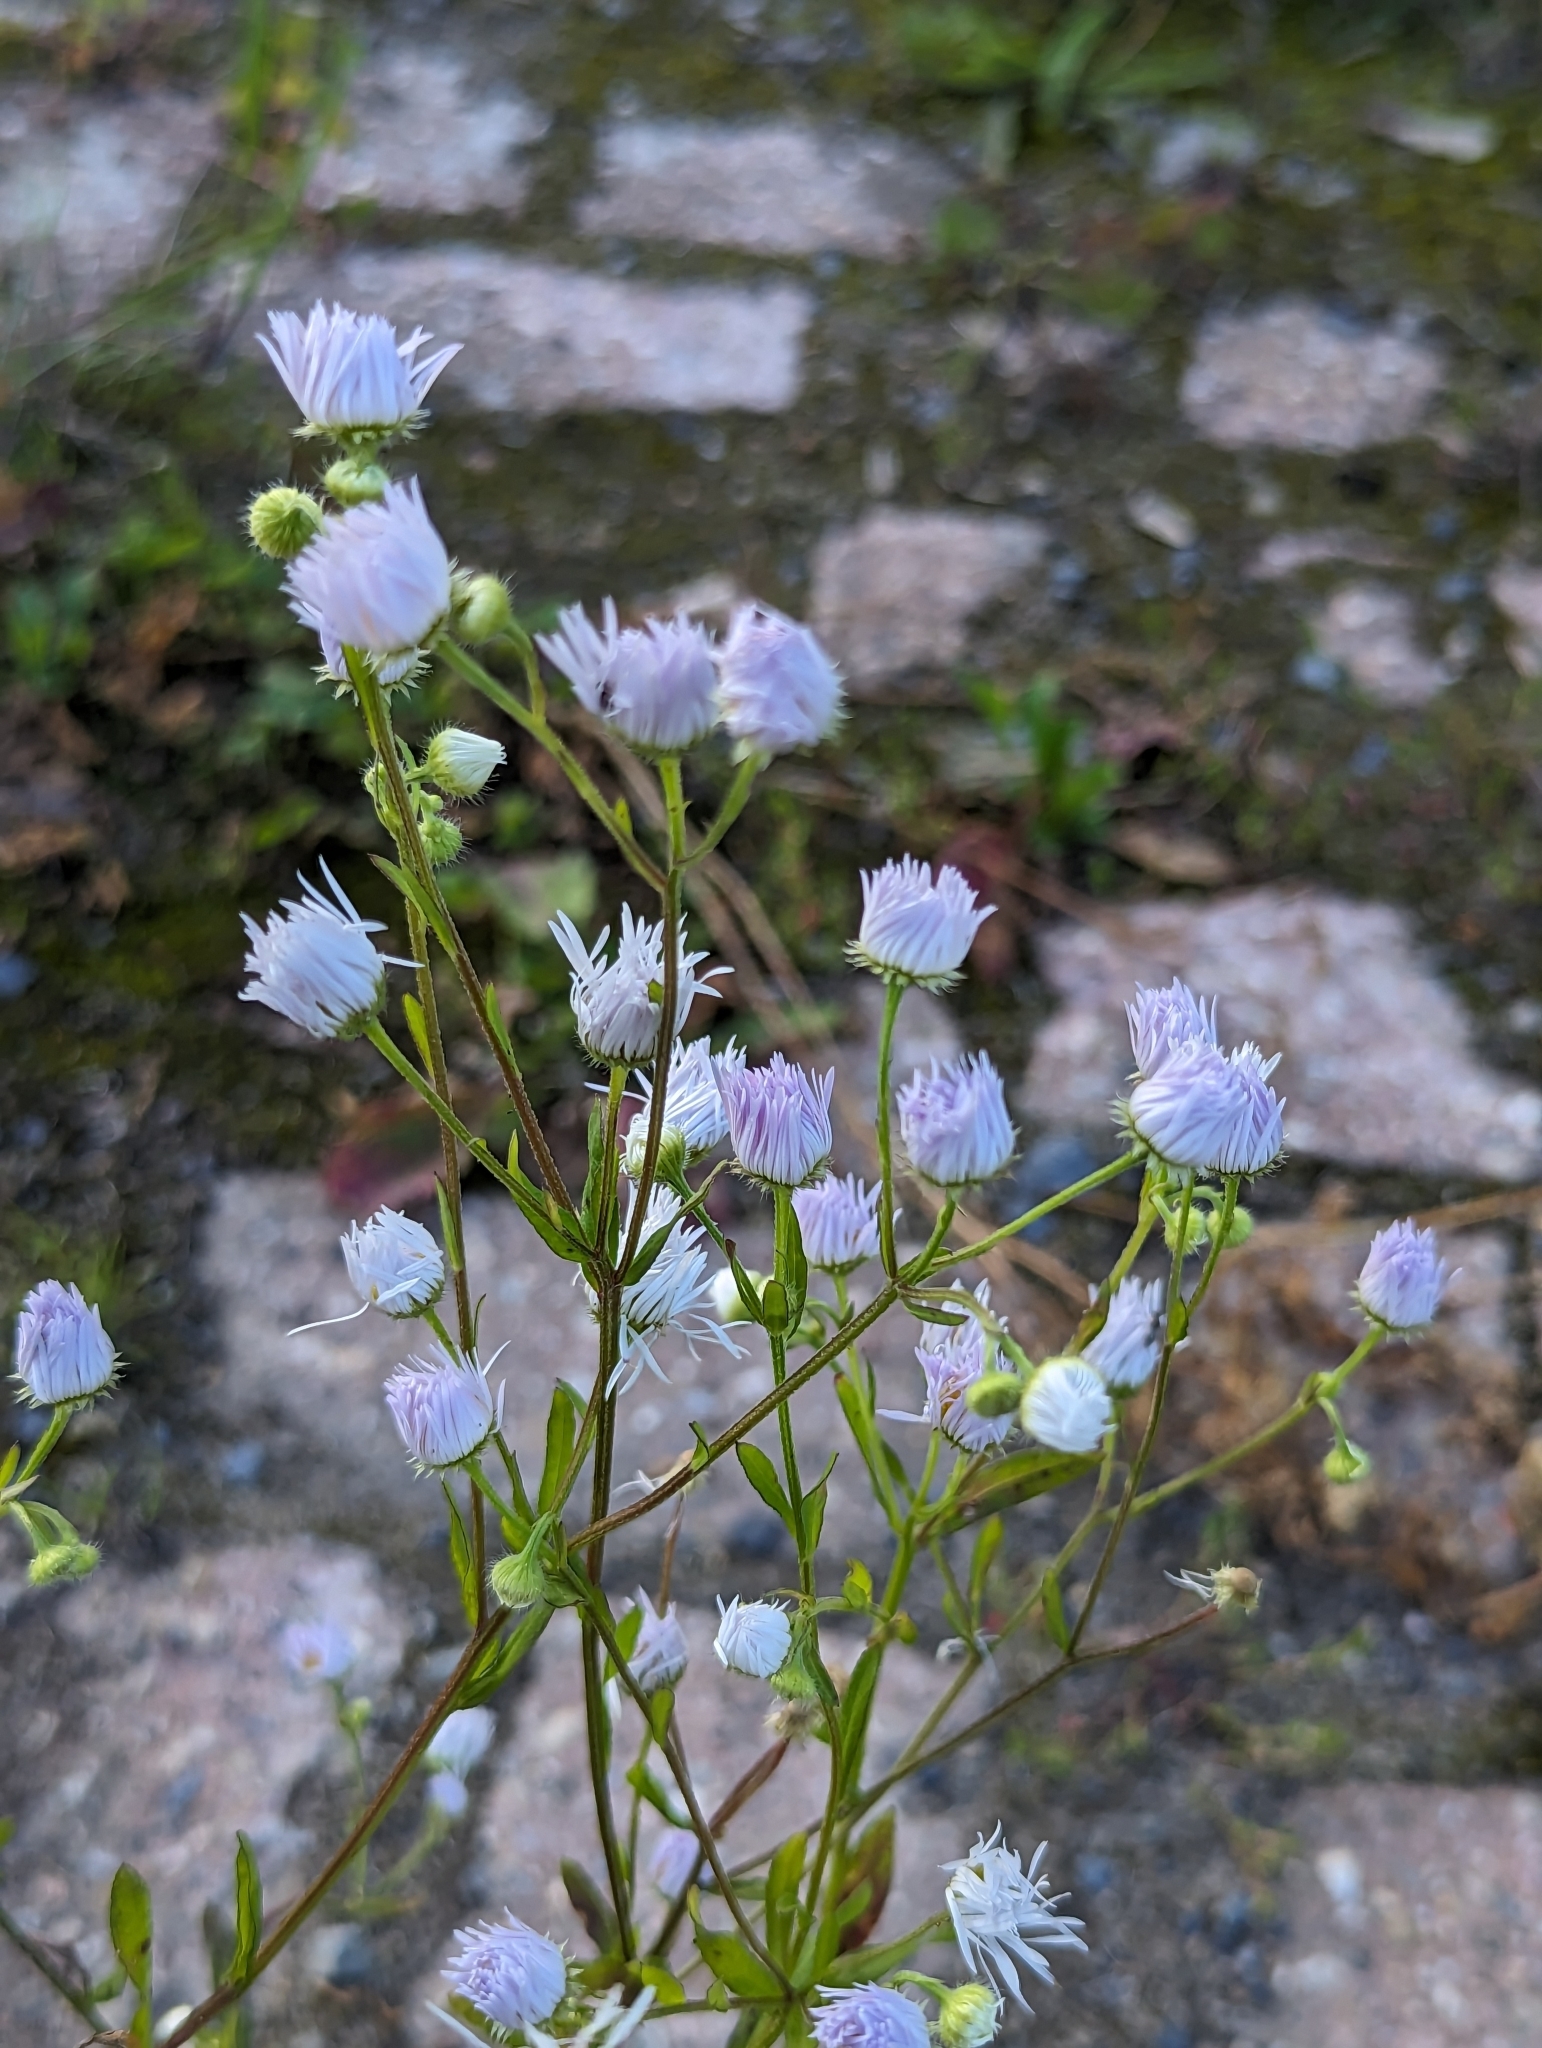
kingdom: Plantae
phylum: Tracheophyta
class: Magnoliopsida
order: Asterales
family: Asteraceae
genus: Erigeron
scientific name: Erigeron annuus
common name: Tall fleabane
